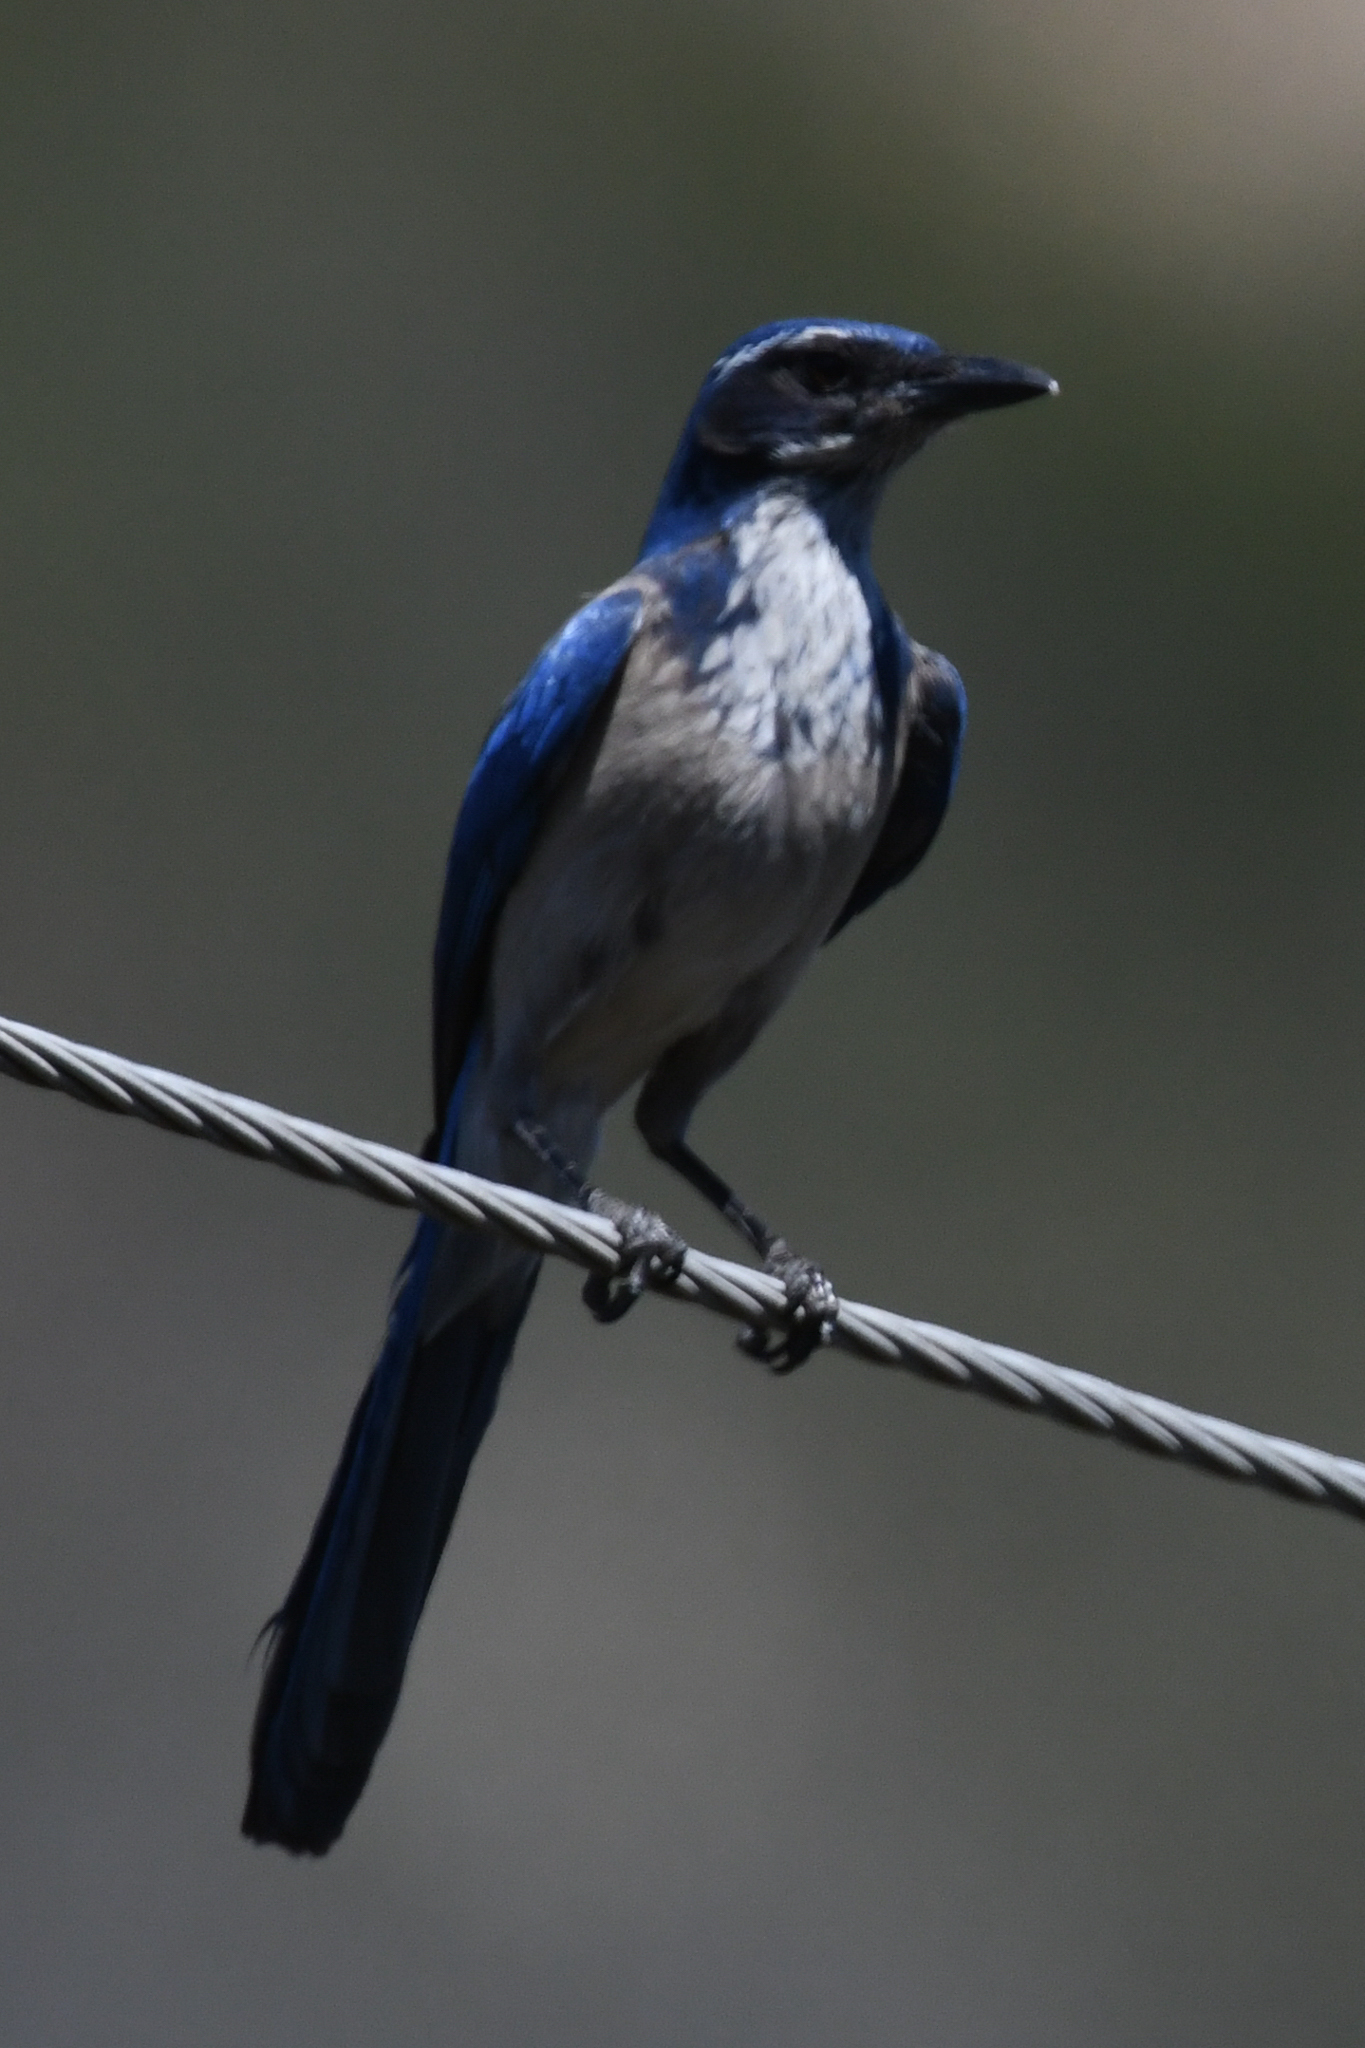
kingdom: Animalia
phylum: Chordata
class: Aves
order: Passeriformes
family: Corvidae
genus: Aphelocoma
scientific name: Aphelocoma californica
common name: California scrub-jay
